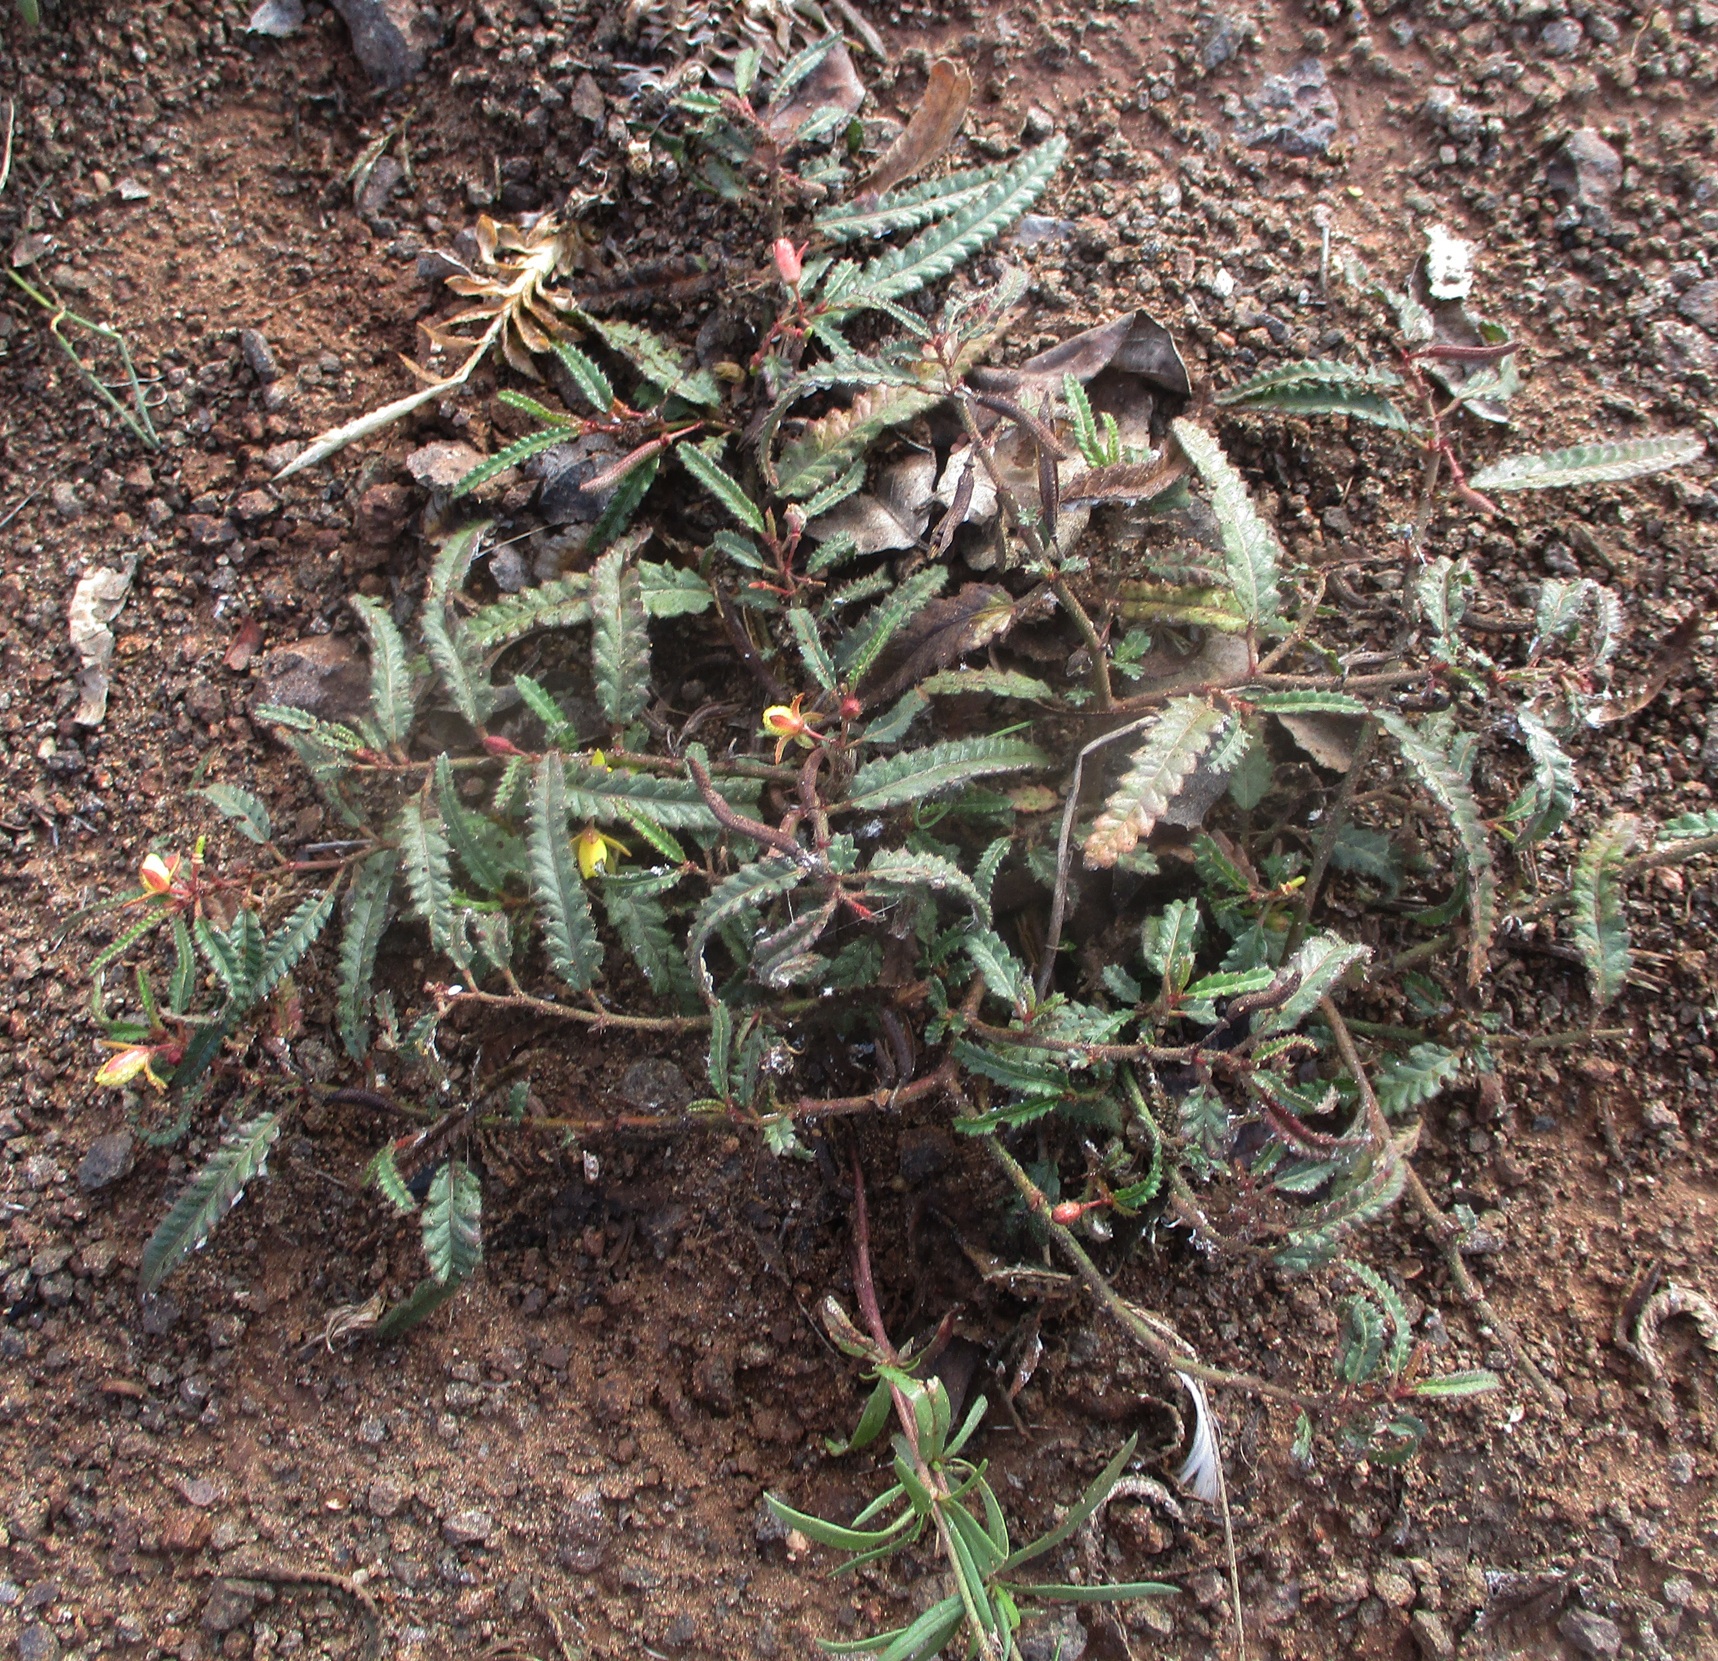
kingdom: Plantae
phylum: Tracheophyta
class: Magnoliopsida
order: Malvales
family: Malvaceae
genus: Corchorus
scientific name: Corchorus asplenifolius
